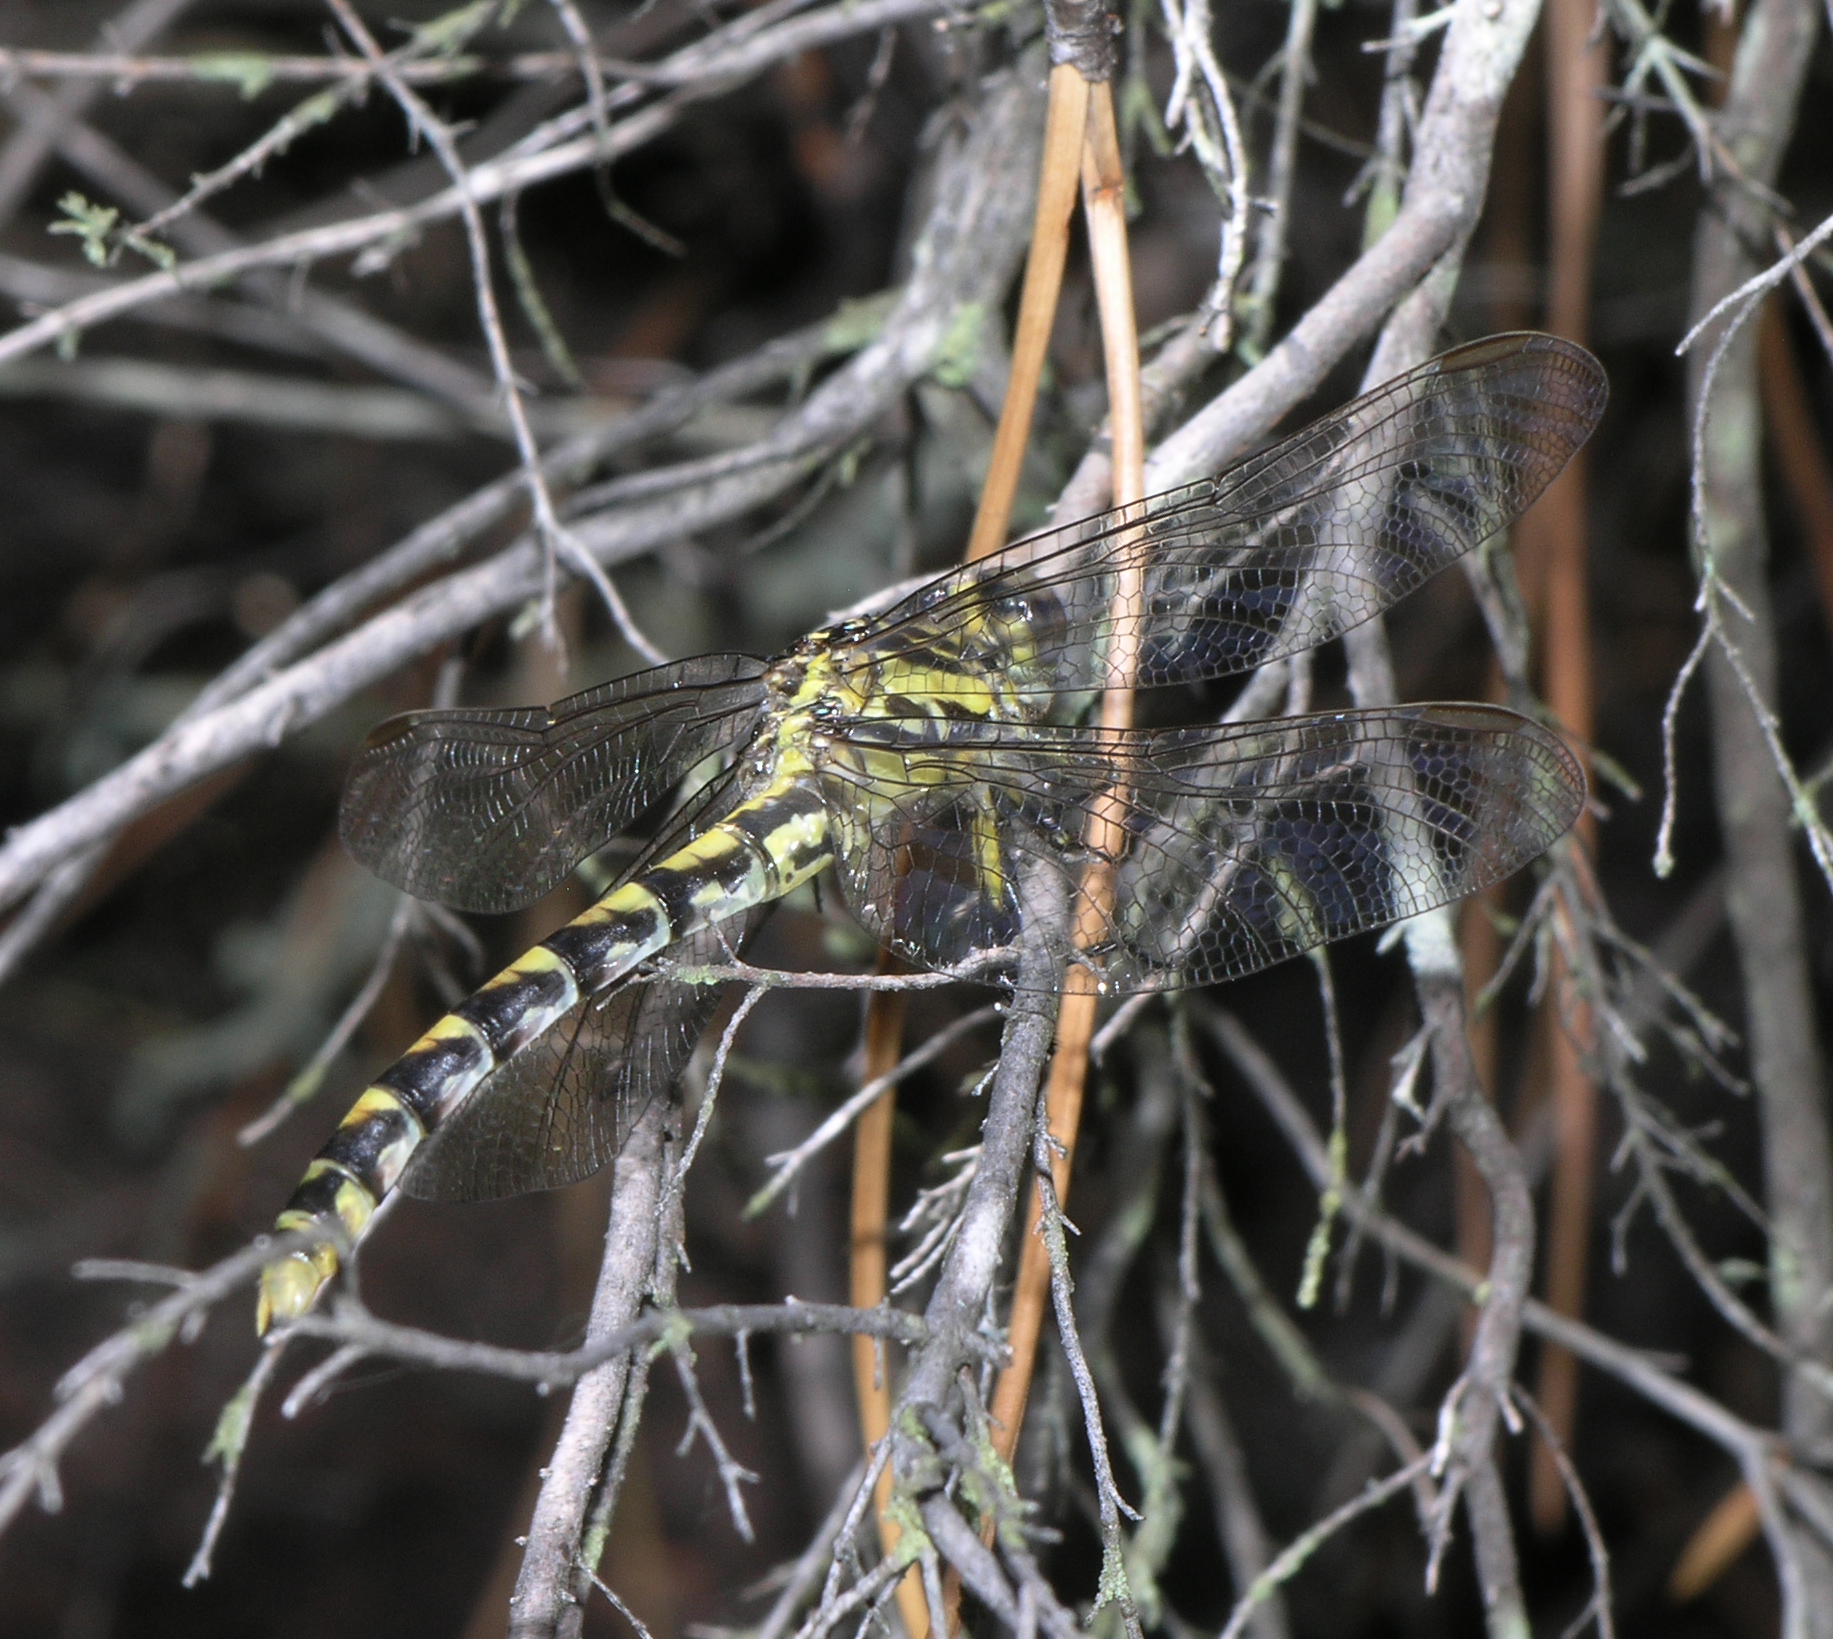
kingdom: Animalia
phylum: Arthropoda
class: Insecta
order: Odonata
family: Gomphidae
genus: Onychogomphus
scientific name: Onychogomphus uncatus
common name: Large pincertail
